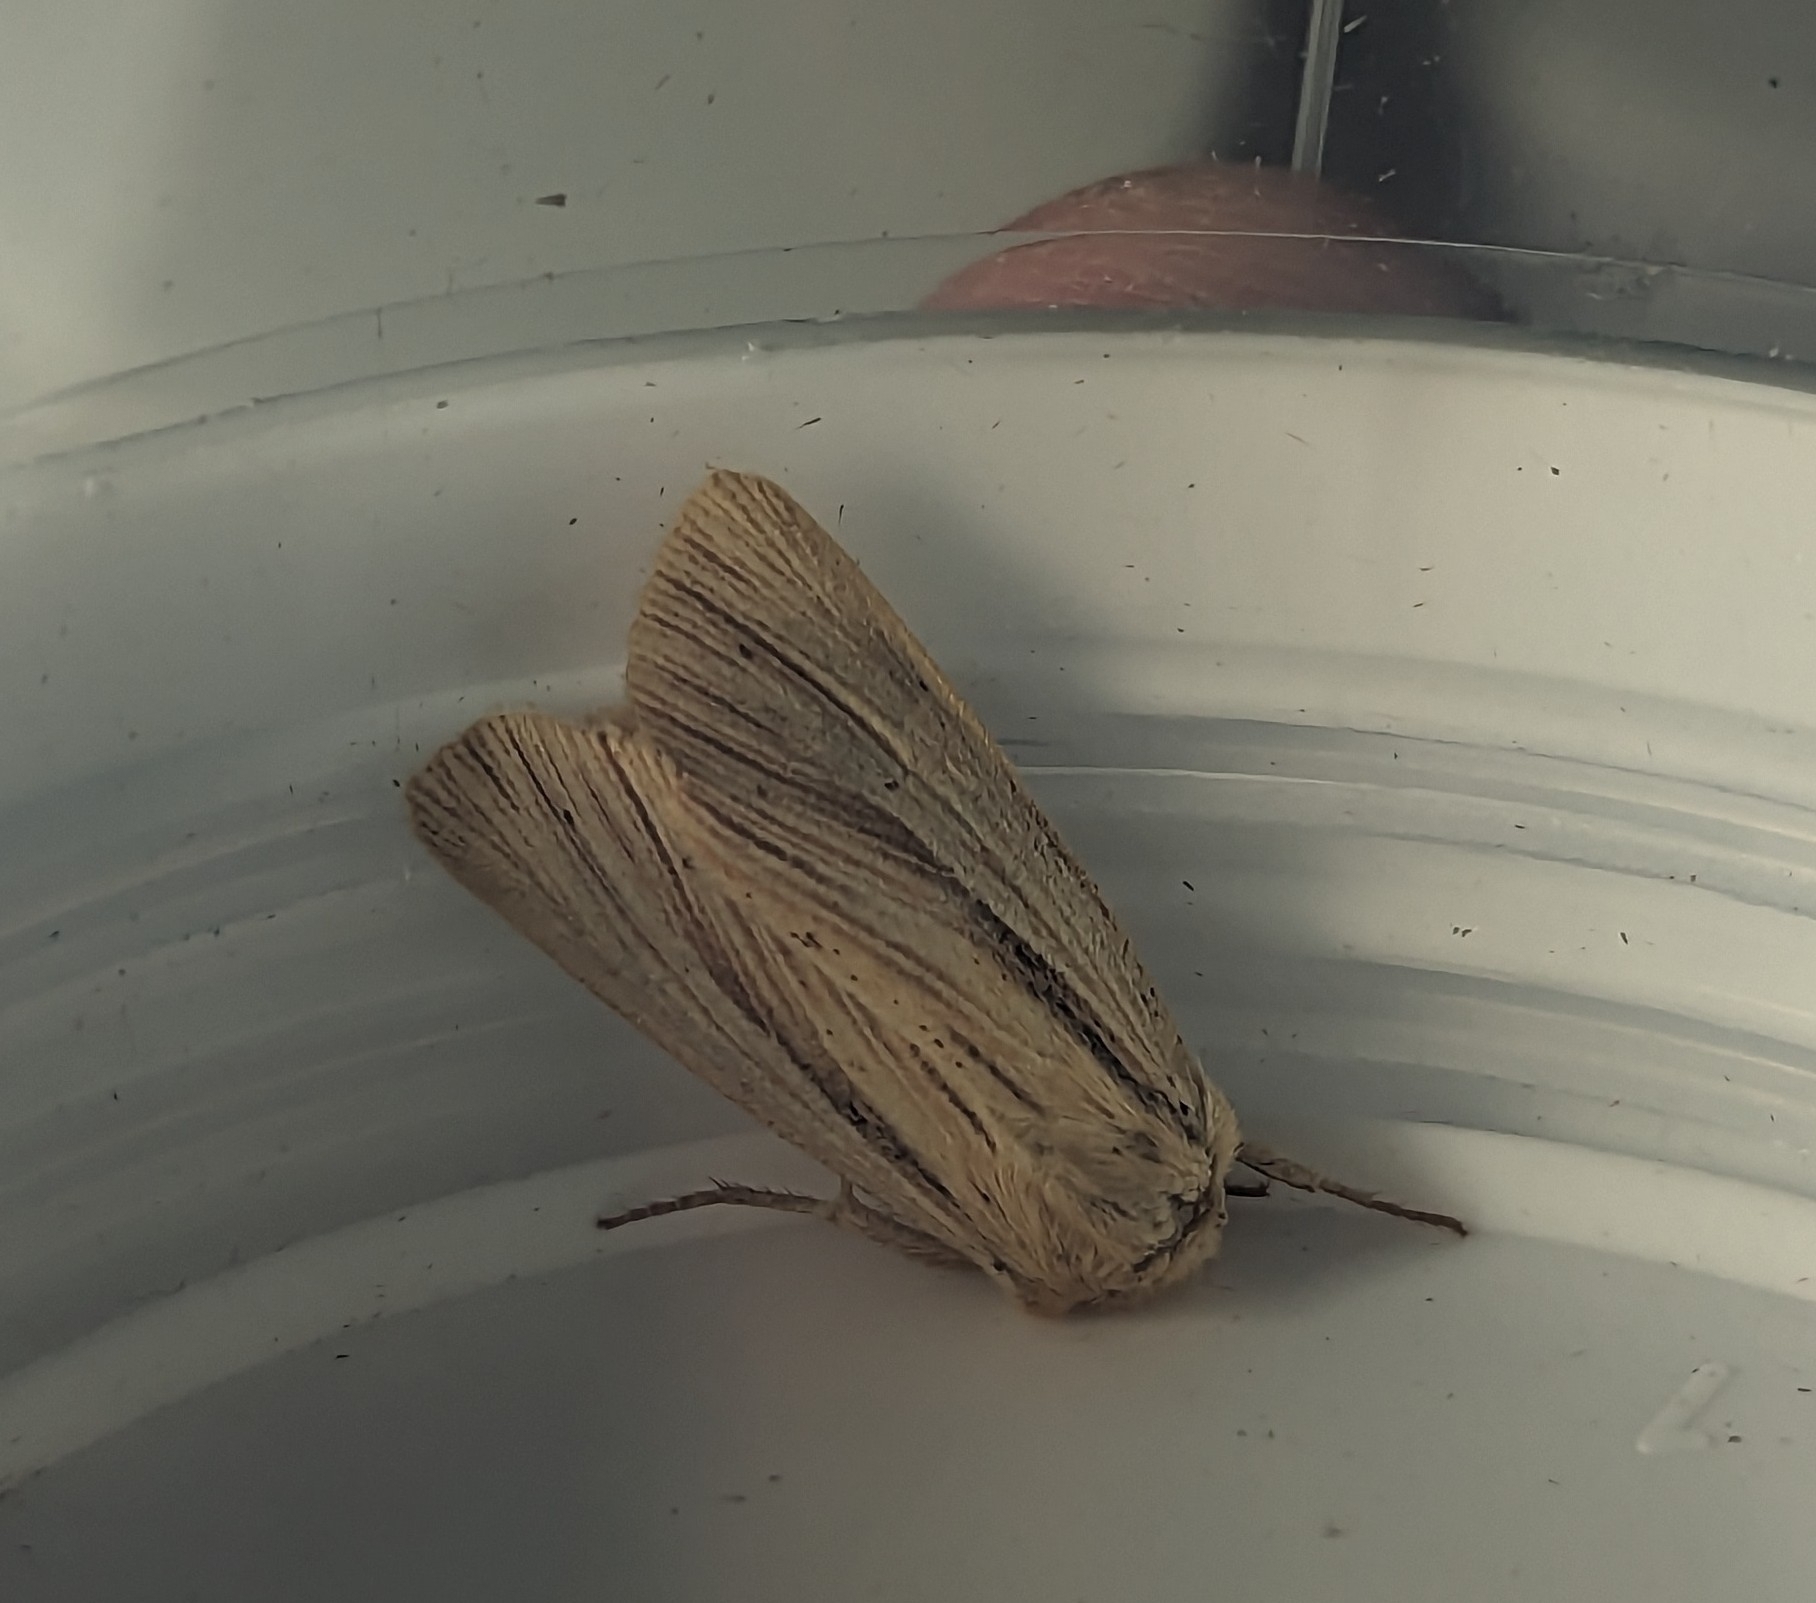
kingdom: Animalia
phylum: Arthropoda
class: Insecta
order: Lepidoptera
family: Noctuidae
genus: Mythimna
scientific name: Mythimna impura
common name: Smoky wainscot
